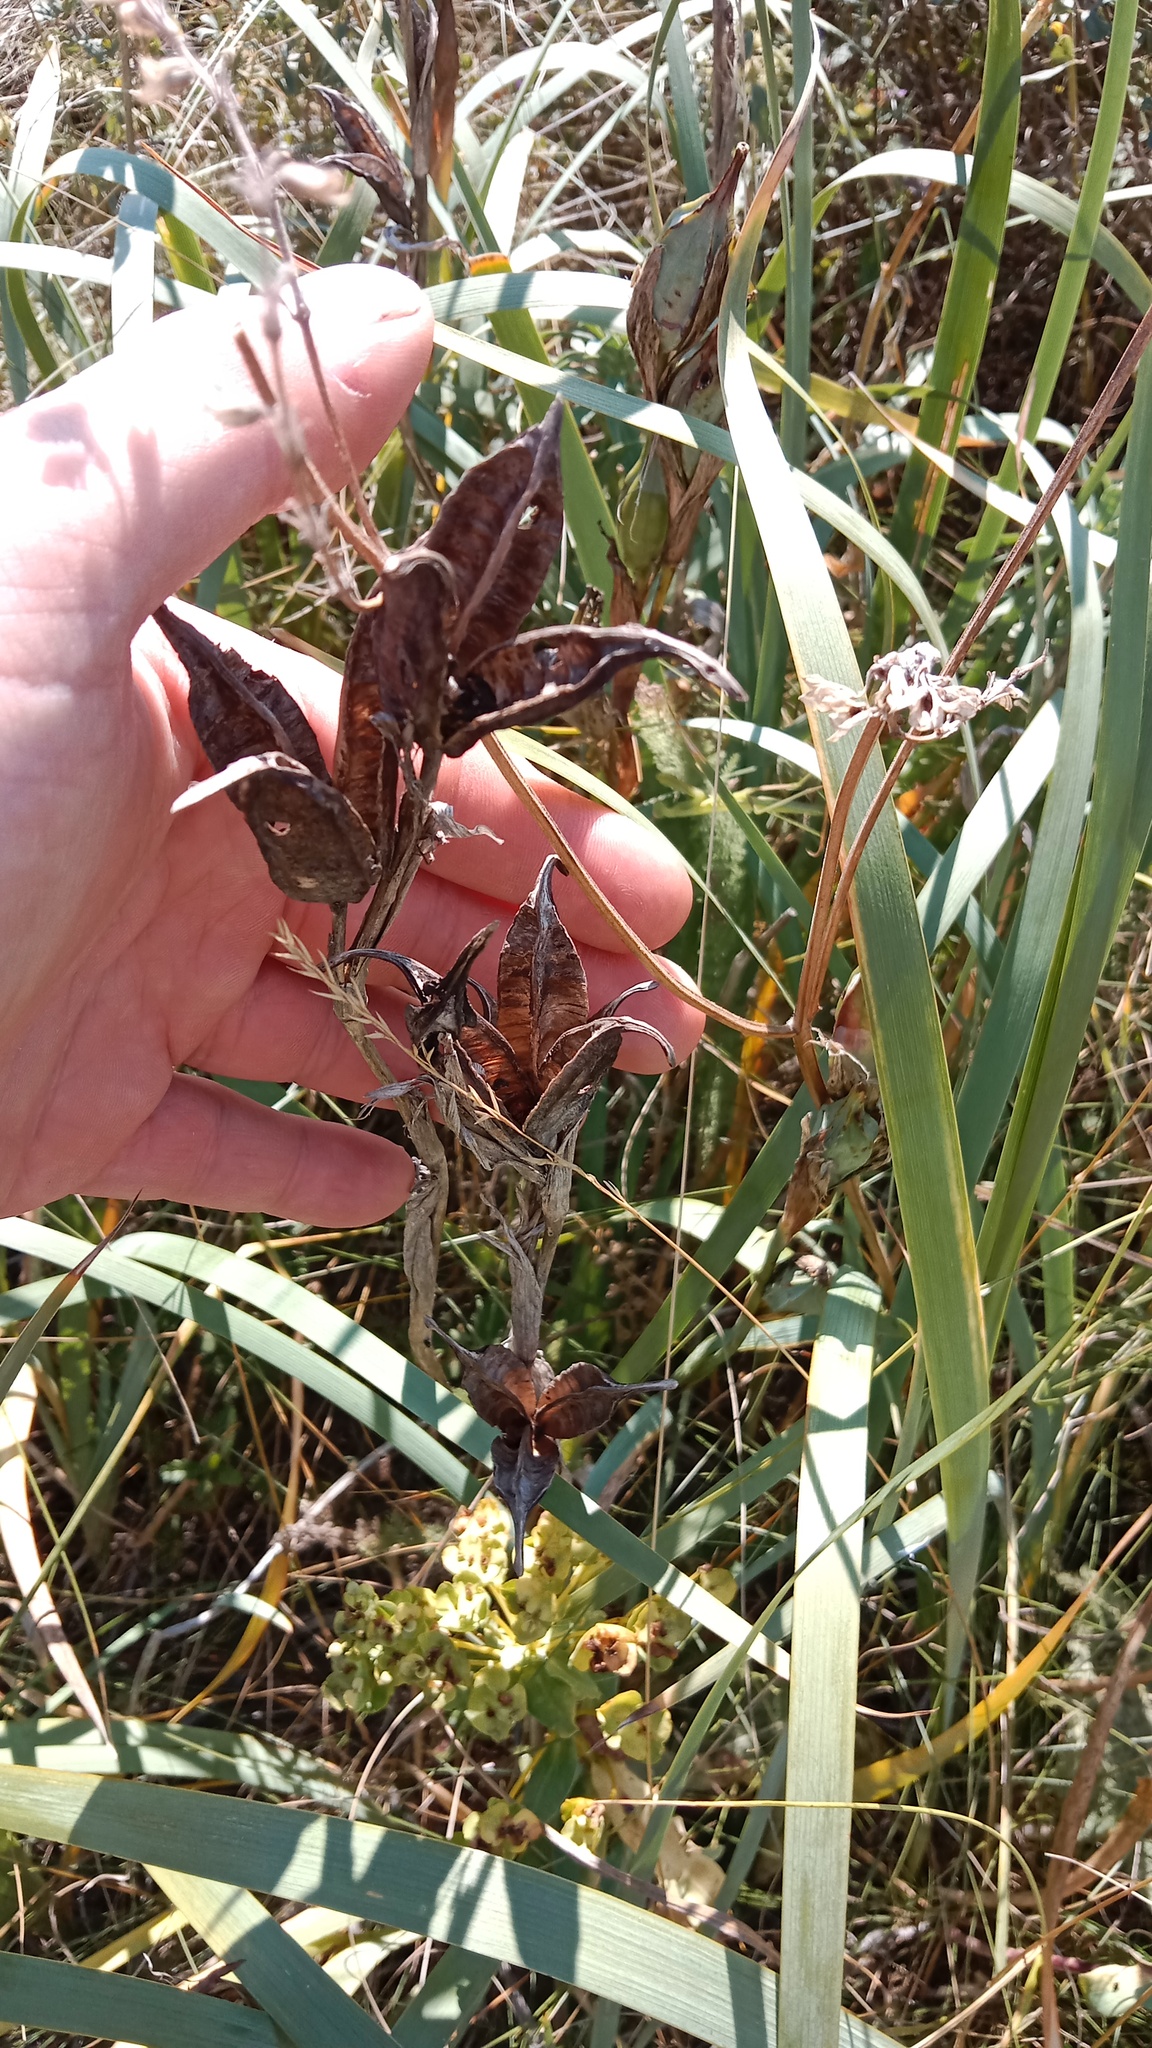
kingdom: Plantae
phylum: Tracheophyta
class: Liliopsida
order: Asparagales
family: Iridaceae
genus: Iris
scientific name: Iris halophila
